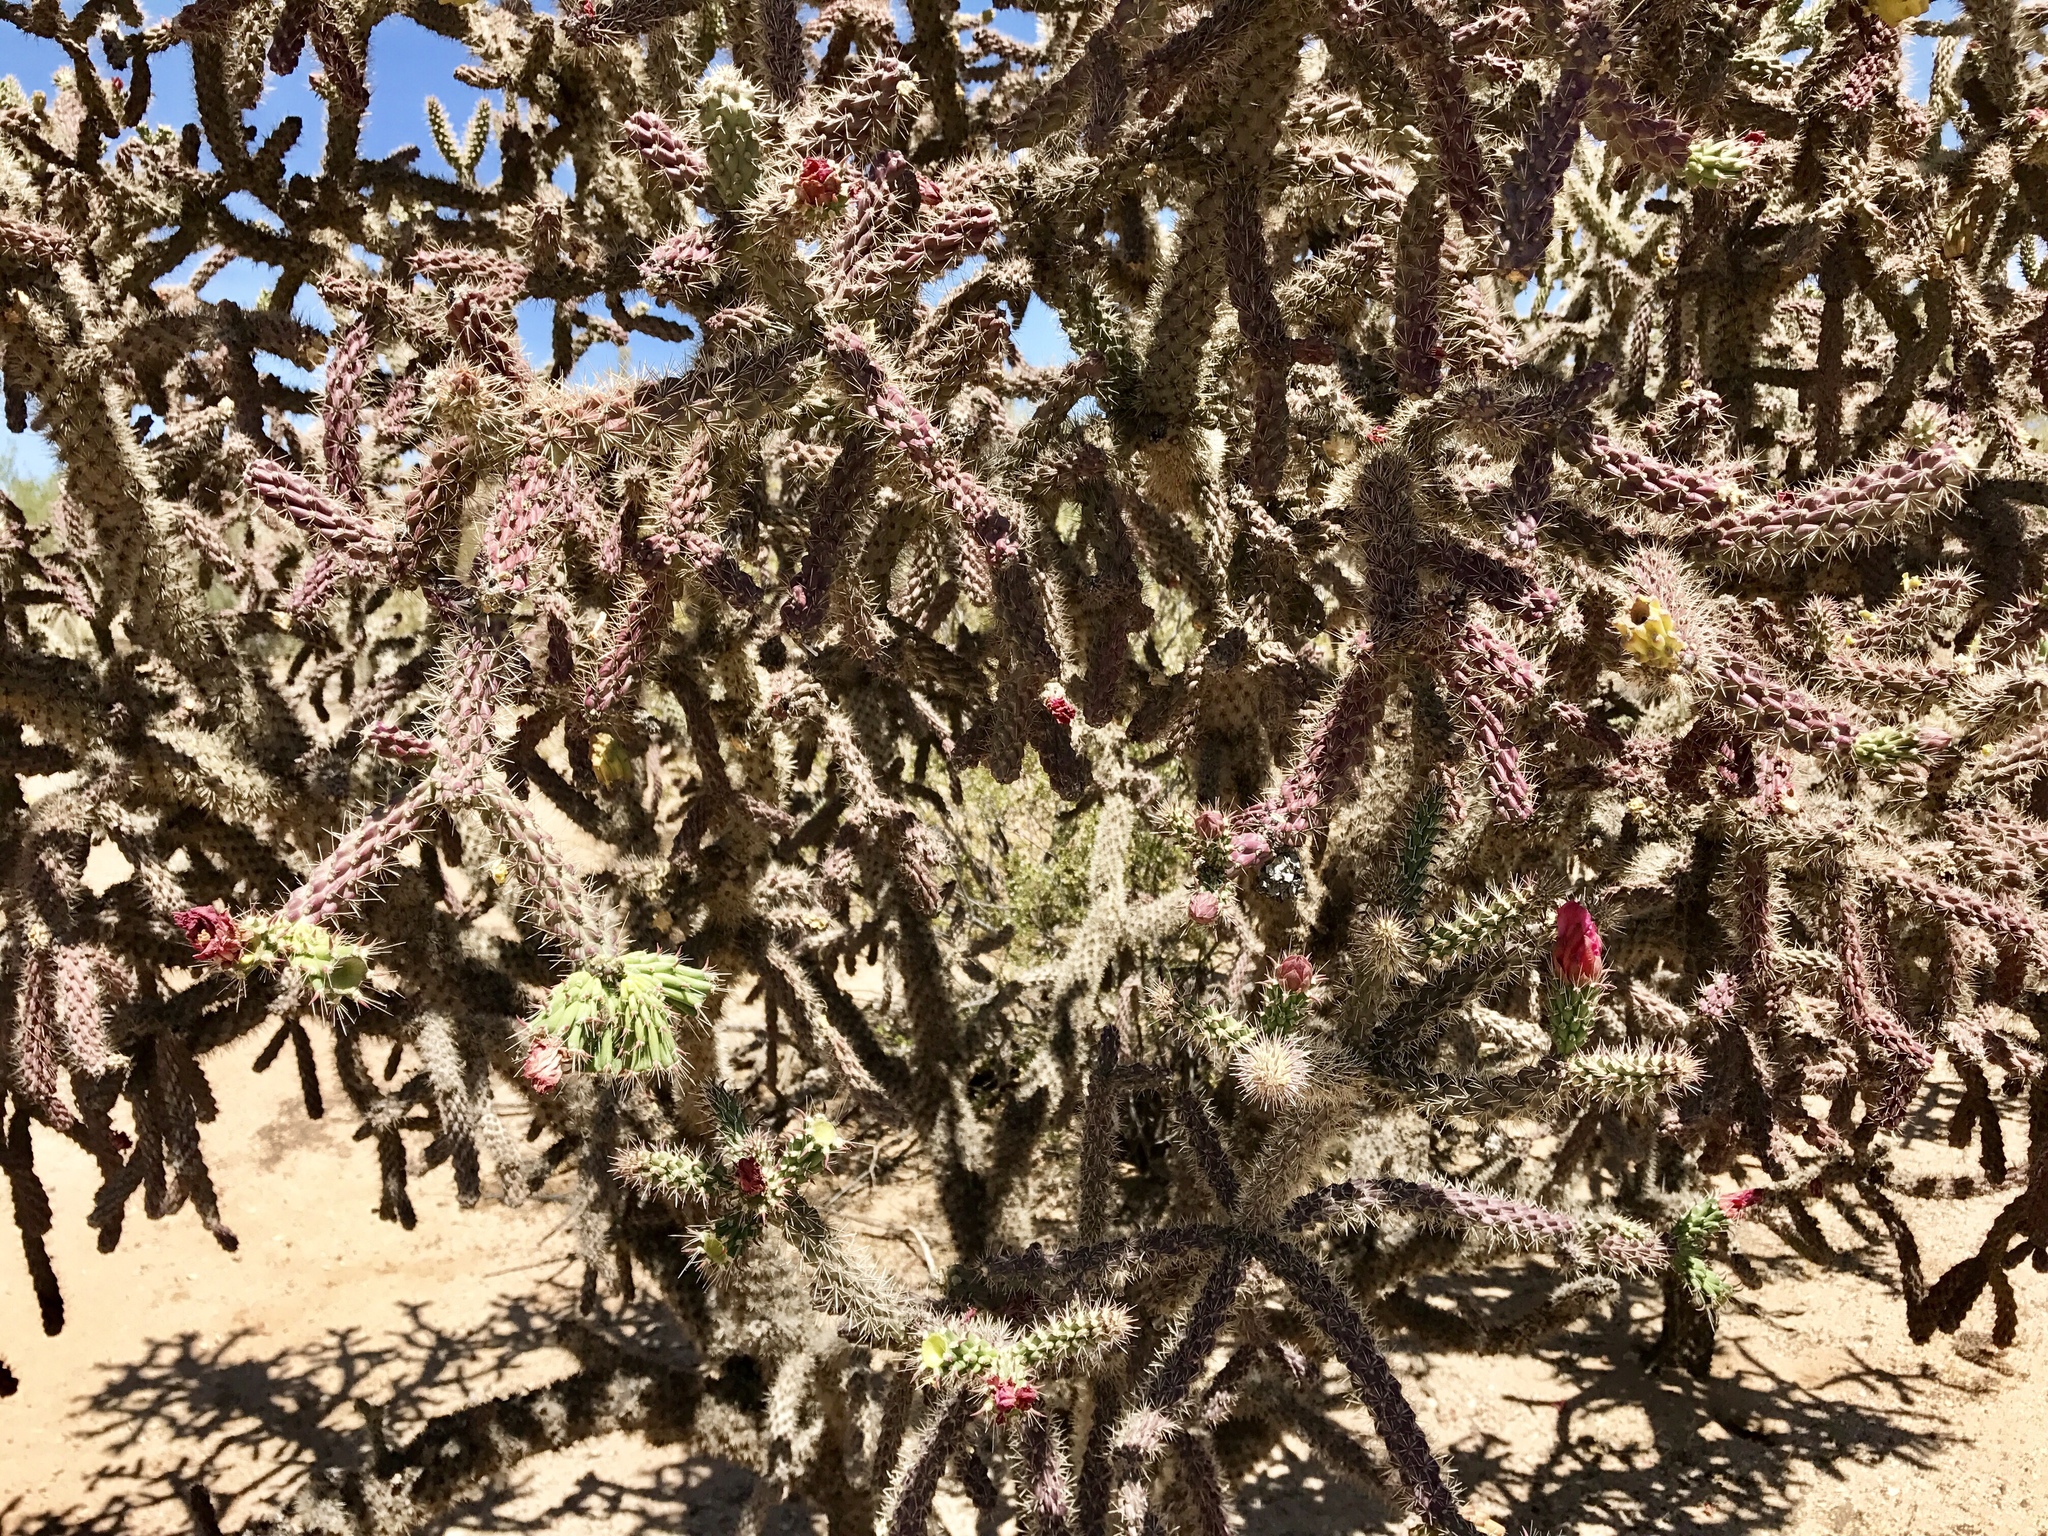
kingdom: Plantae
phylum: Tracheophyta
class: Magnoliopsida
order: Caryophyllales
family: Cactaceae
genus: Cylindropuntia
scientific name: Cylindropuntia thurberi
